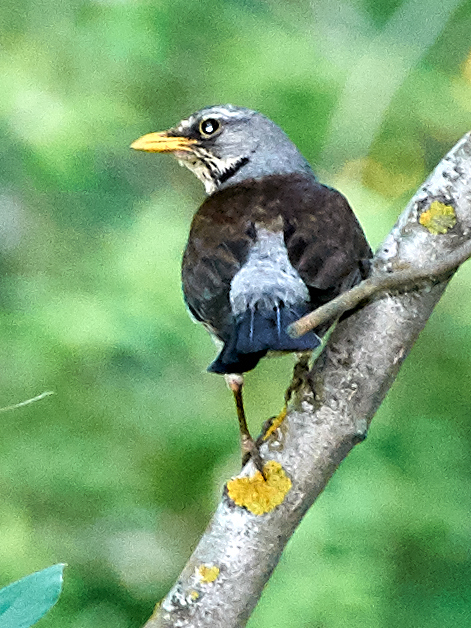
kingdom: Animalia
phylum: Chordata
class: Aves
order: Passeriformes
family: Turdidae
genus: Turdus
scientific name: Turdus pilaris
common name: Fieldfare
